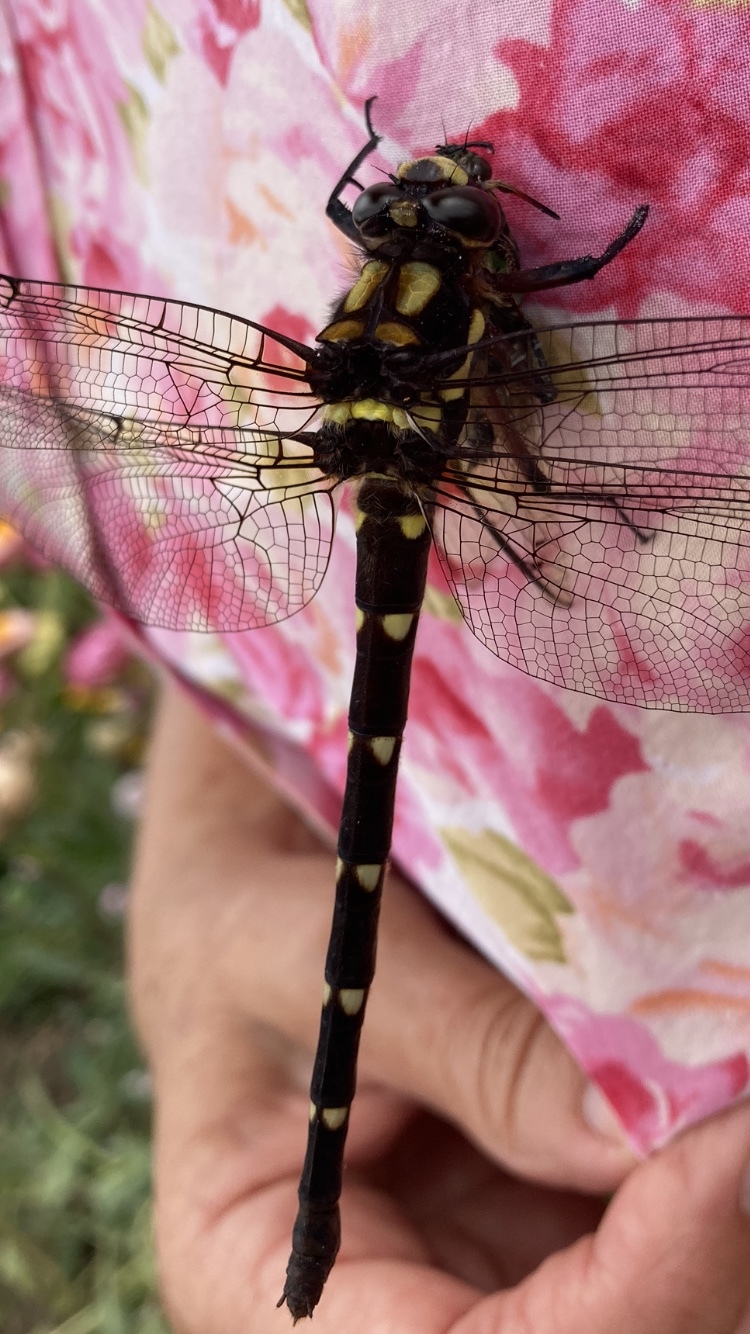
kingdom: Animalia
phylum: Arthropoda
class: Insecta
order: Odonata
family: Petaluridae
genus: Uropetala
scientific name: Uropetala carovei
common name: Bush giant dragonfly
